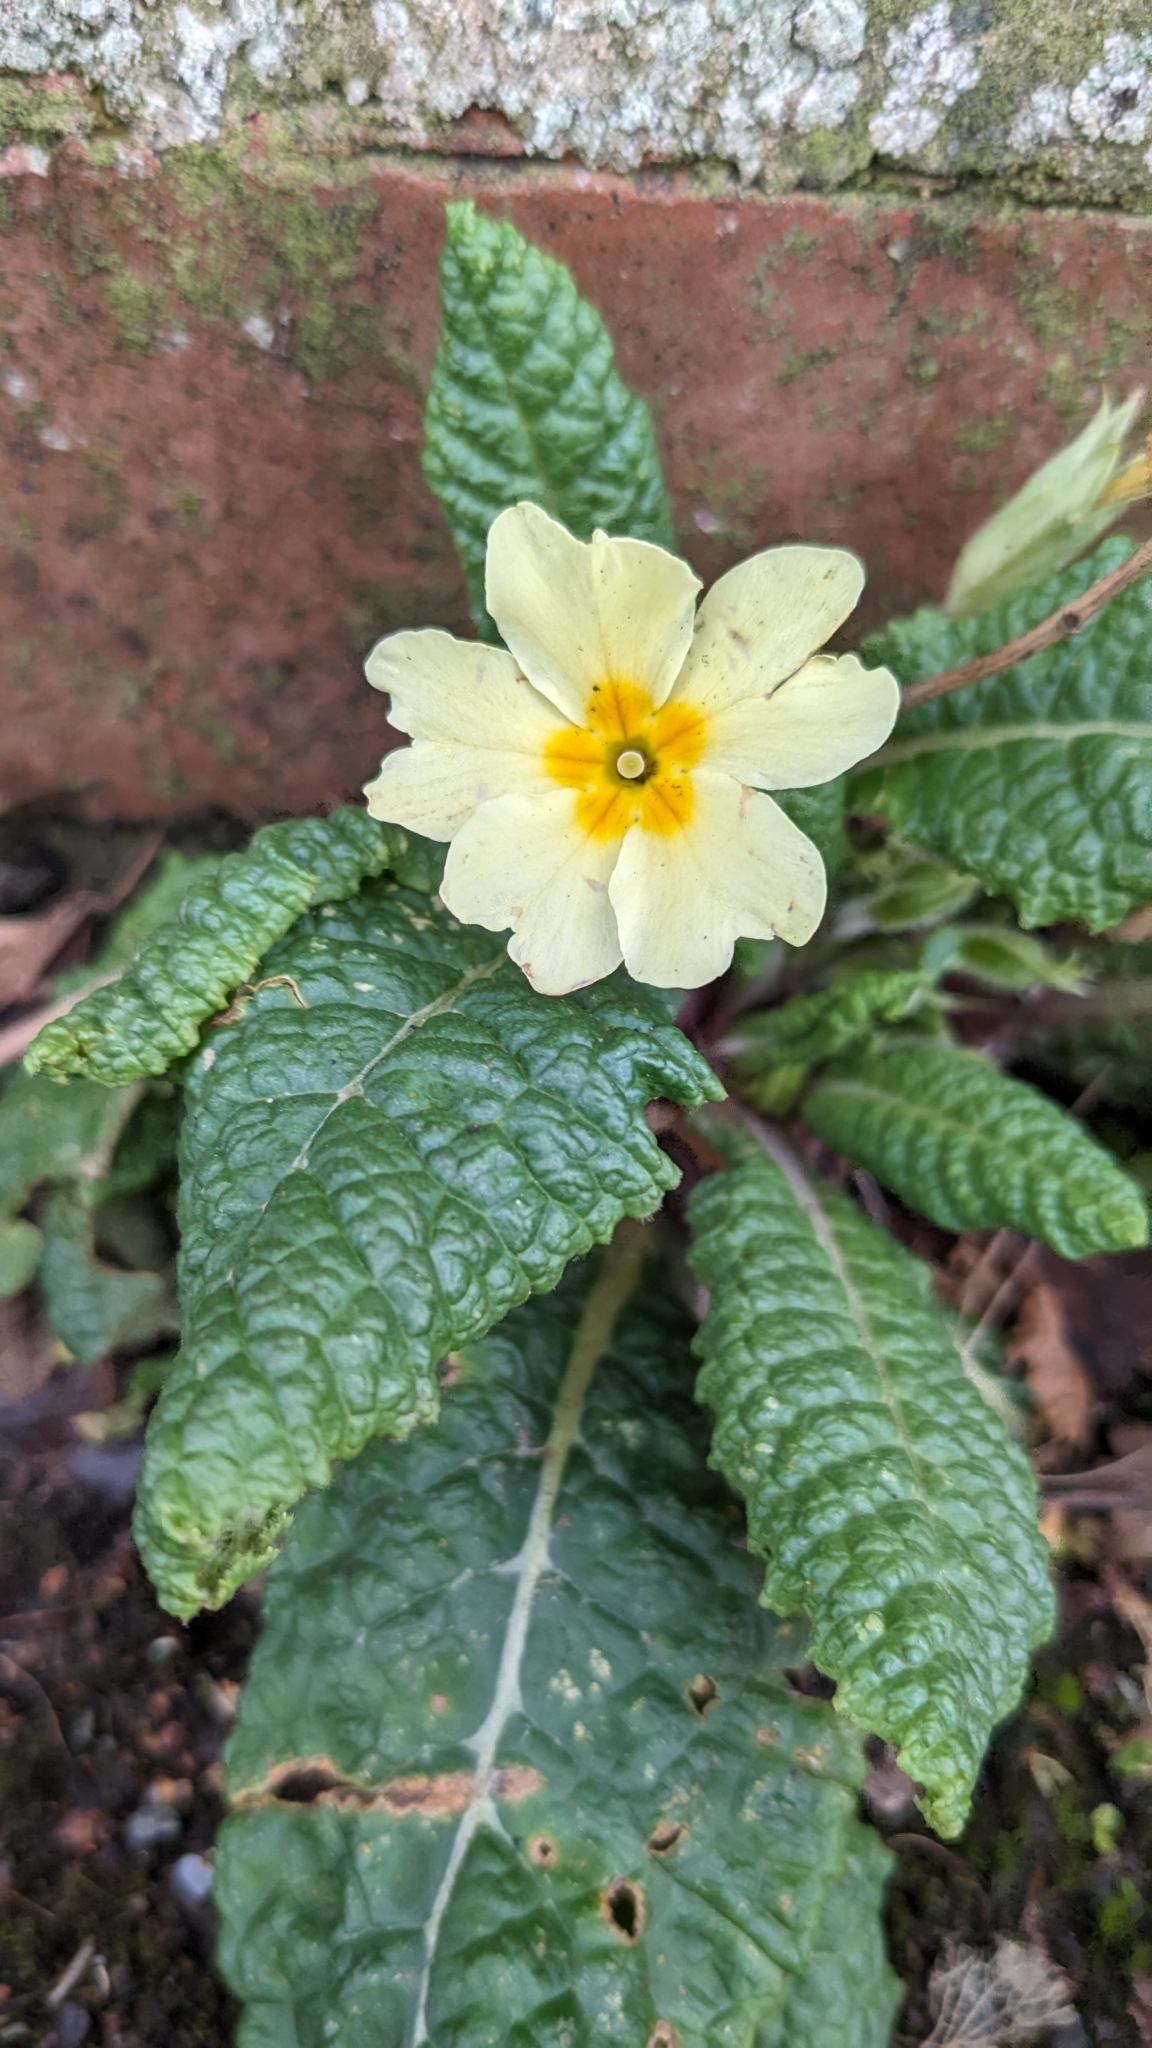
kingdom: Plantae
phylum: Tracheophyta
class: Magnoliopsida
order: Ericales
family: Primulaceae
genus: Primula
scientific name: Primula vulgaris
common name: Primrose
